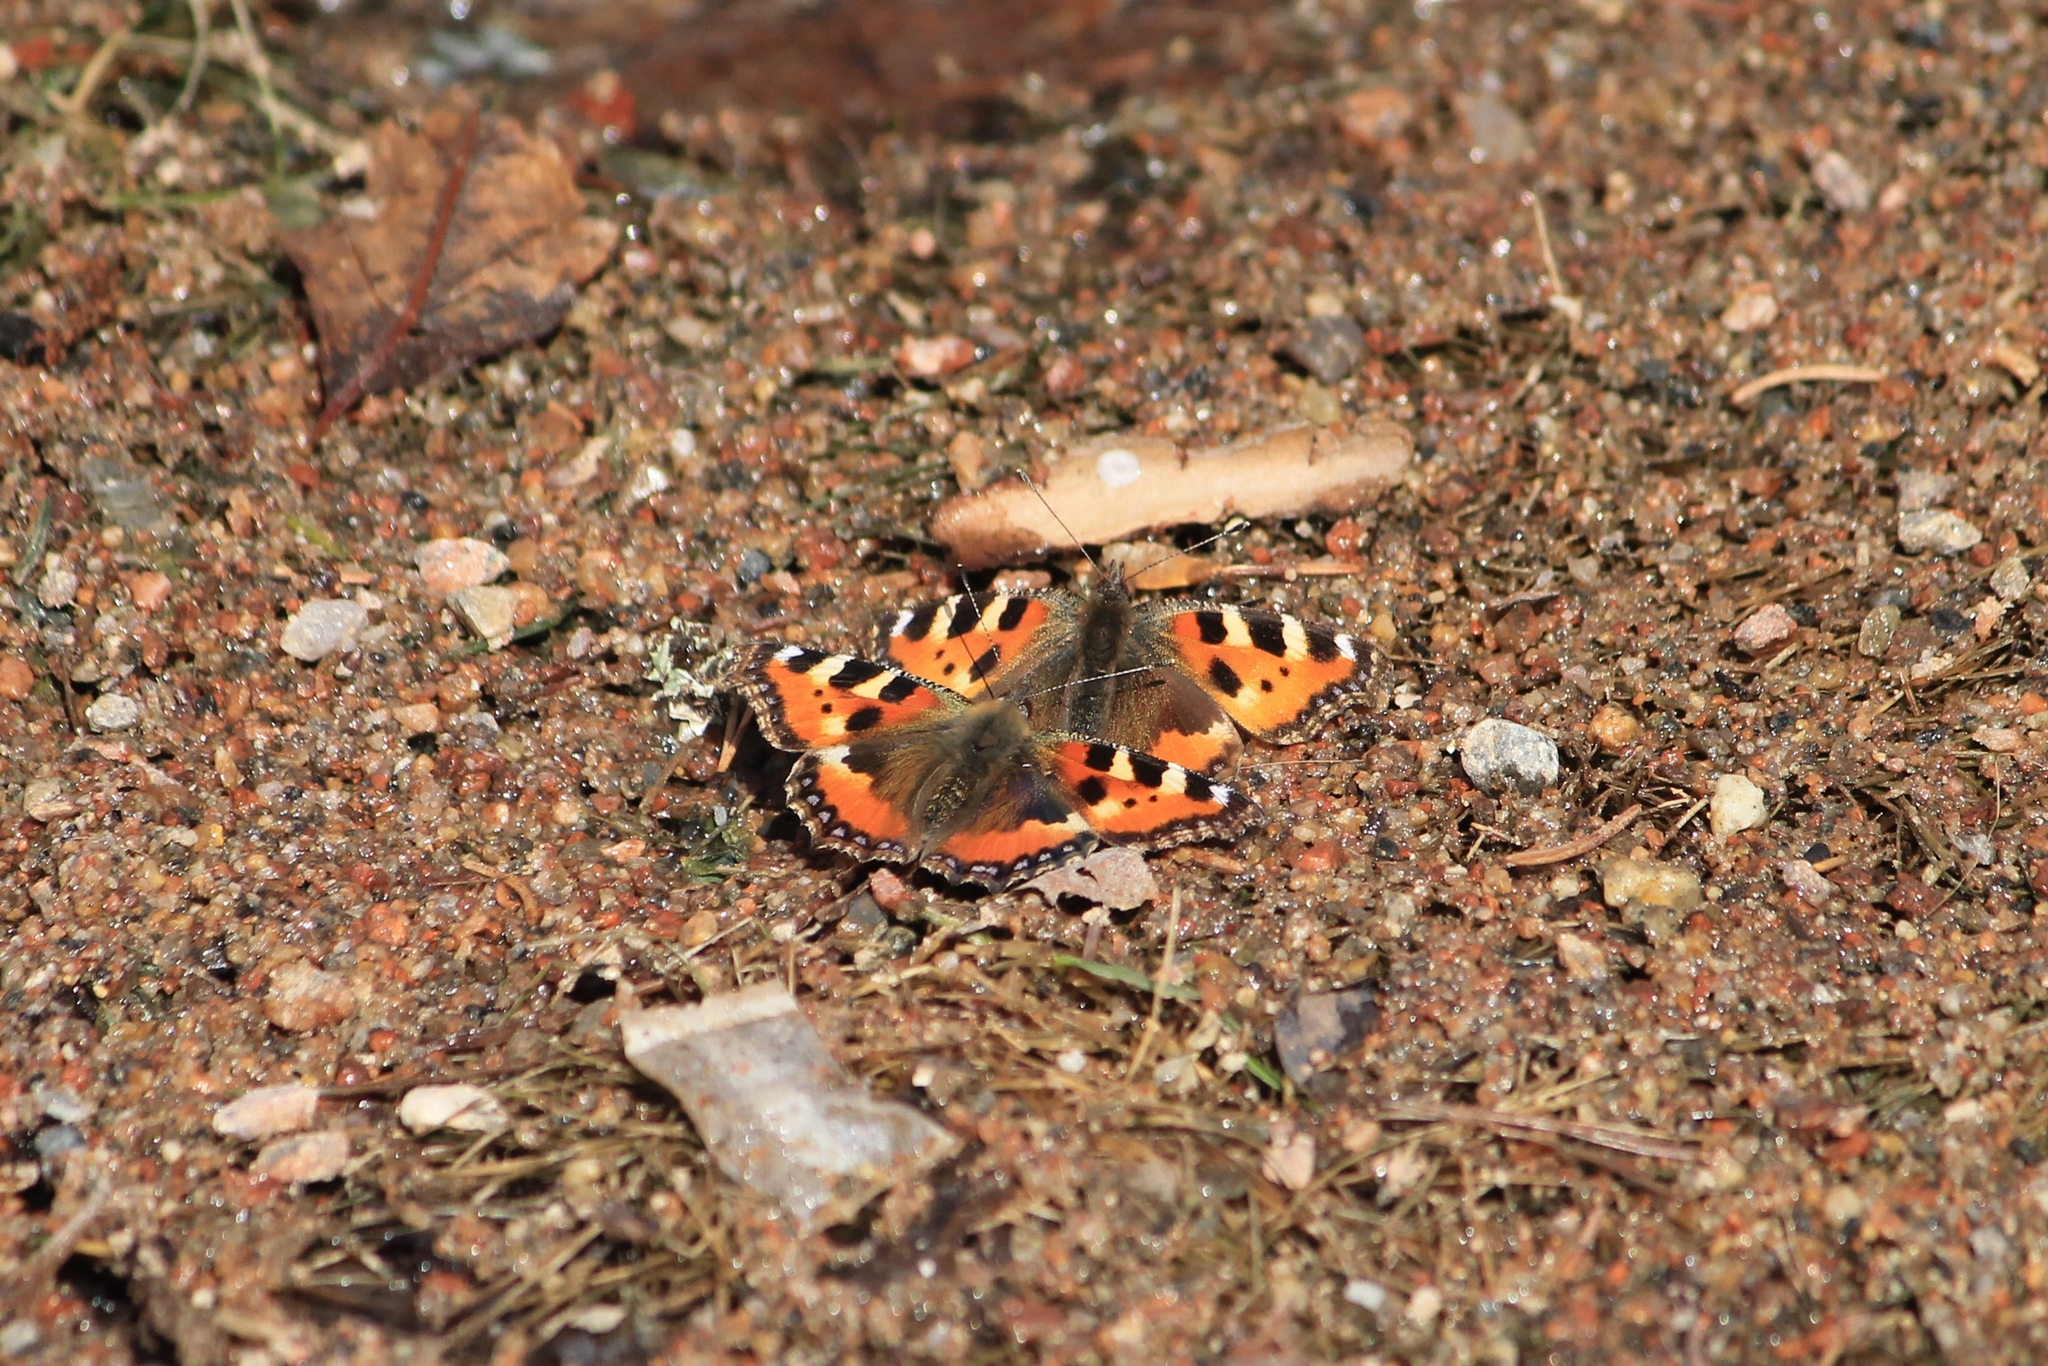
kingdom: Animalia
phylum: Arthropoda
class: Insecta
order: Lepidoptera
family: Nymphalidae
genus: Aglais
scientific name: Aglais urticae
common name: Small tortoiseshell
